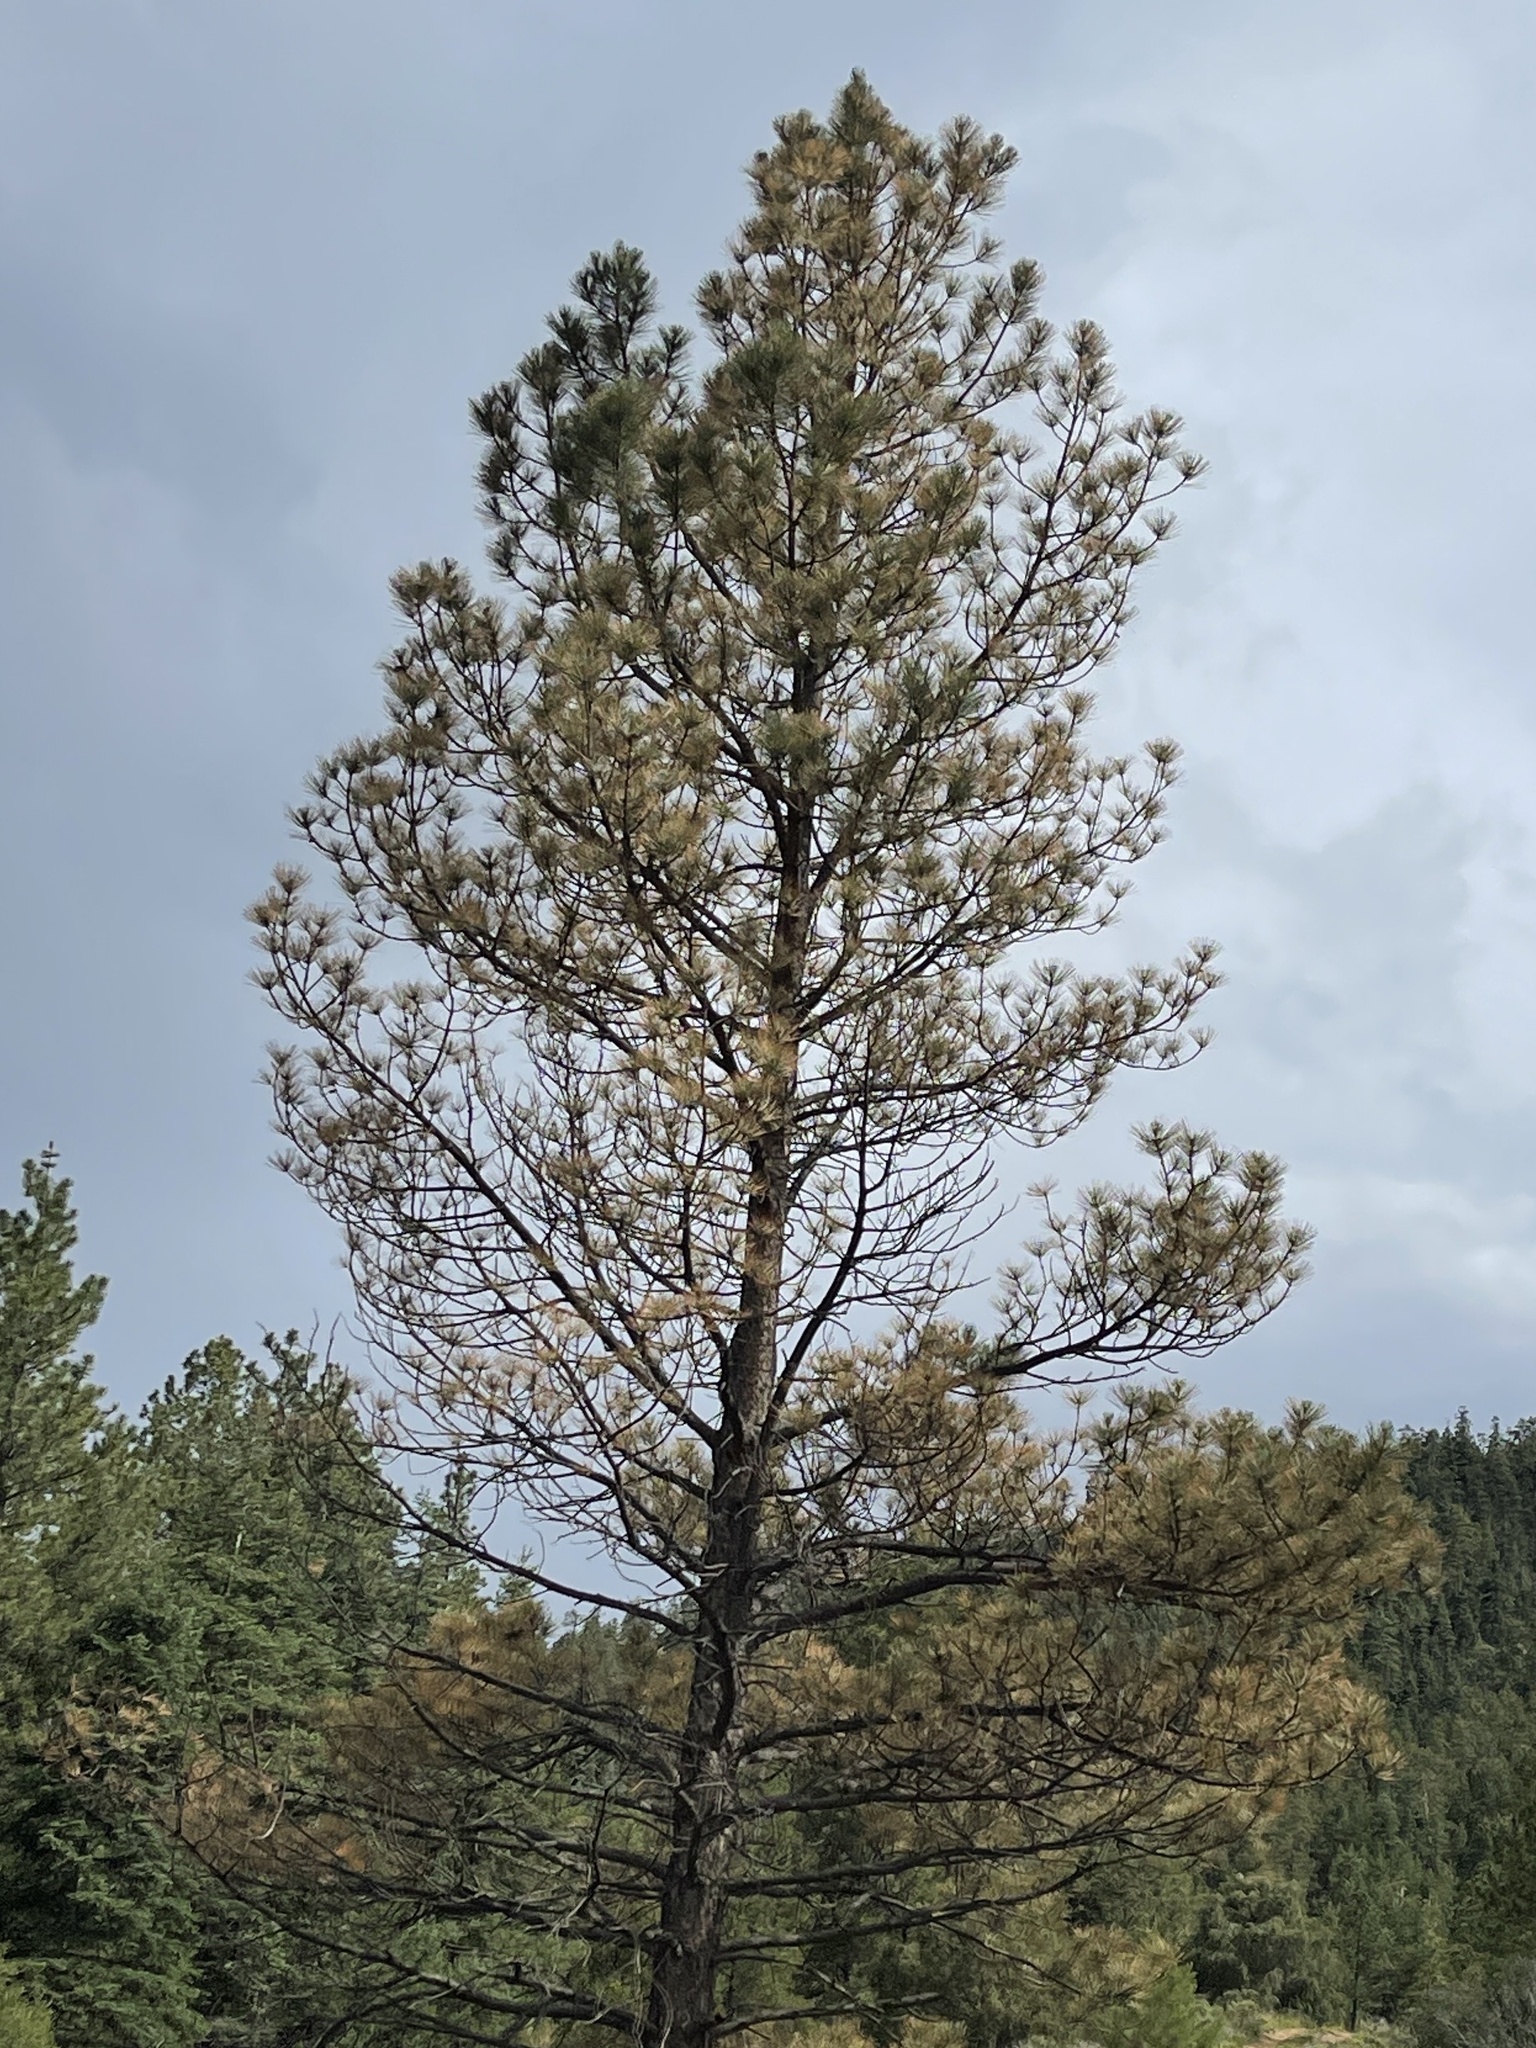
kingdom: Plantae
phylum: Tracheophyta
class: Pinopsida
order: Pinales
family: Pinaceae
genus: Pinus
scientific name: Pinus ponderosa
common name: Western yellow-pine
